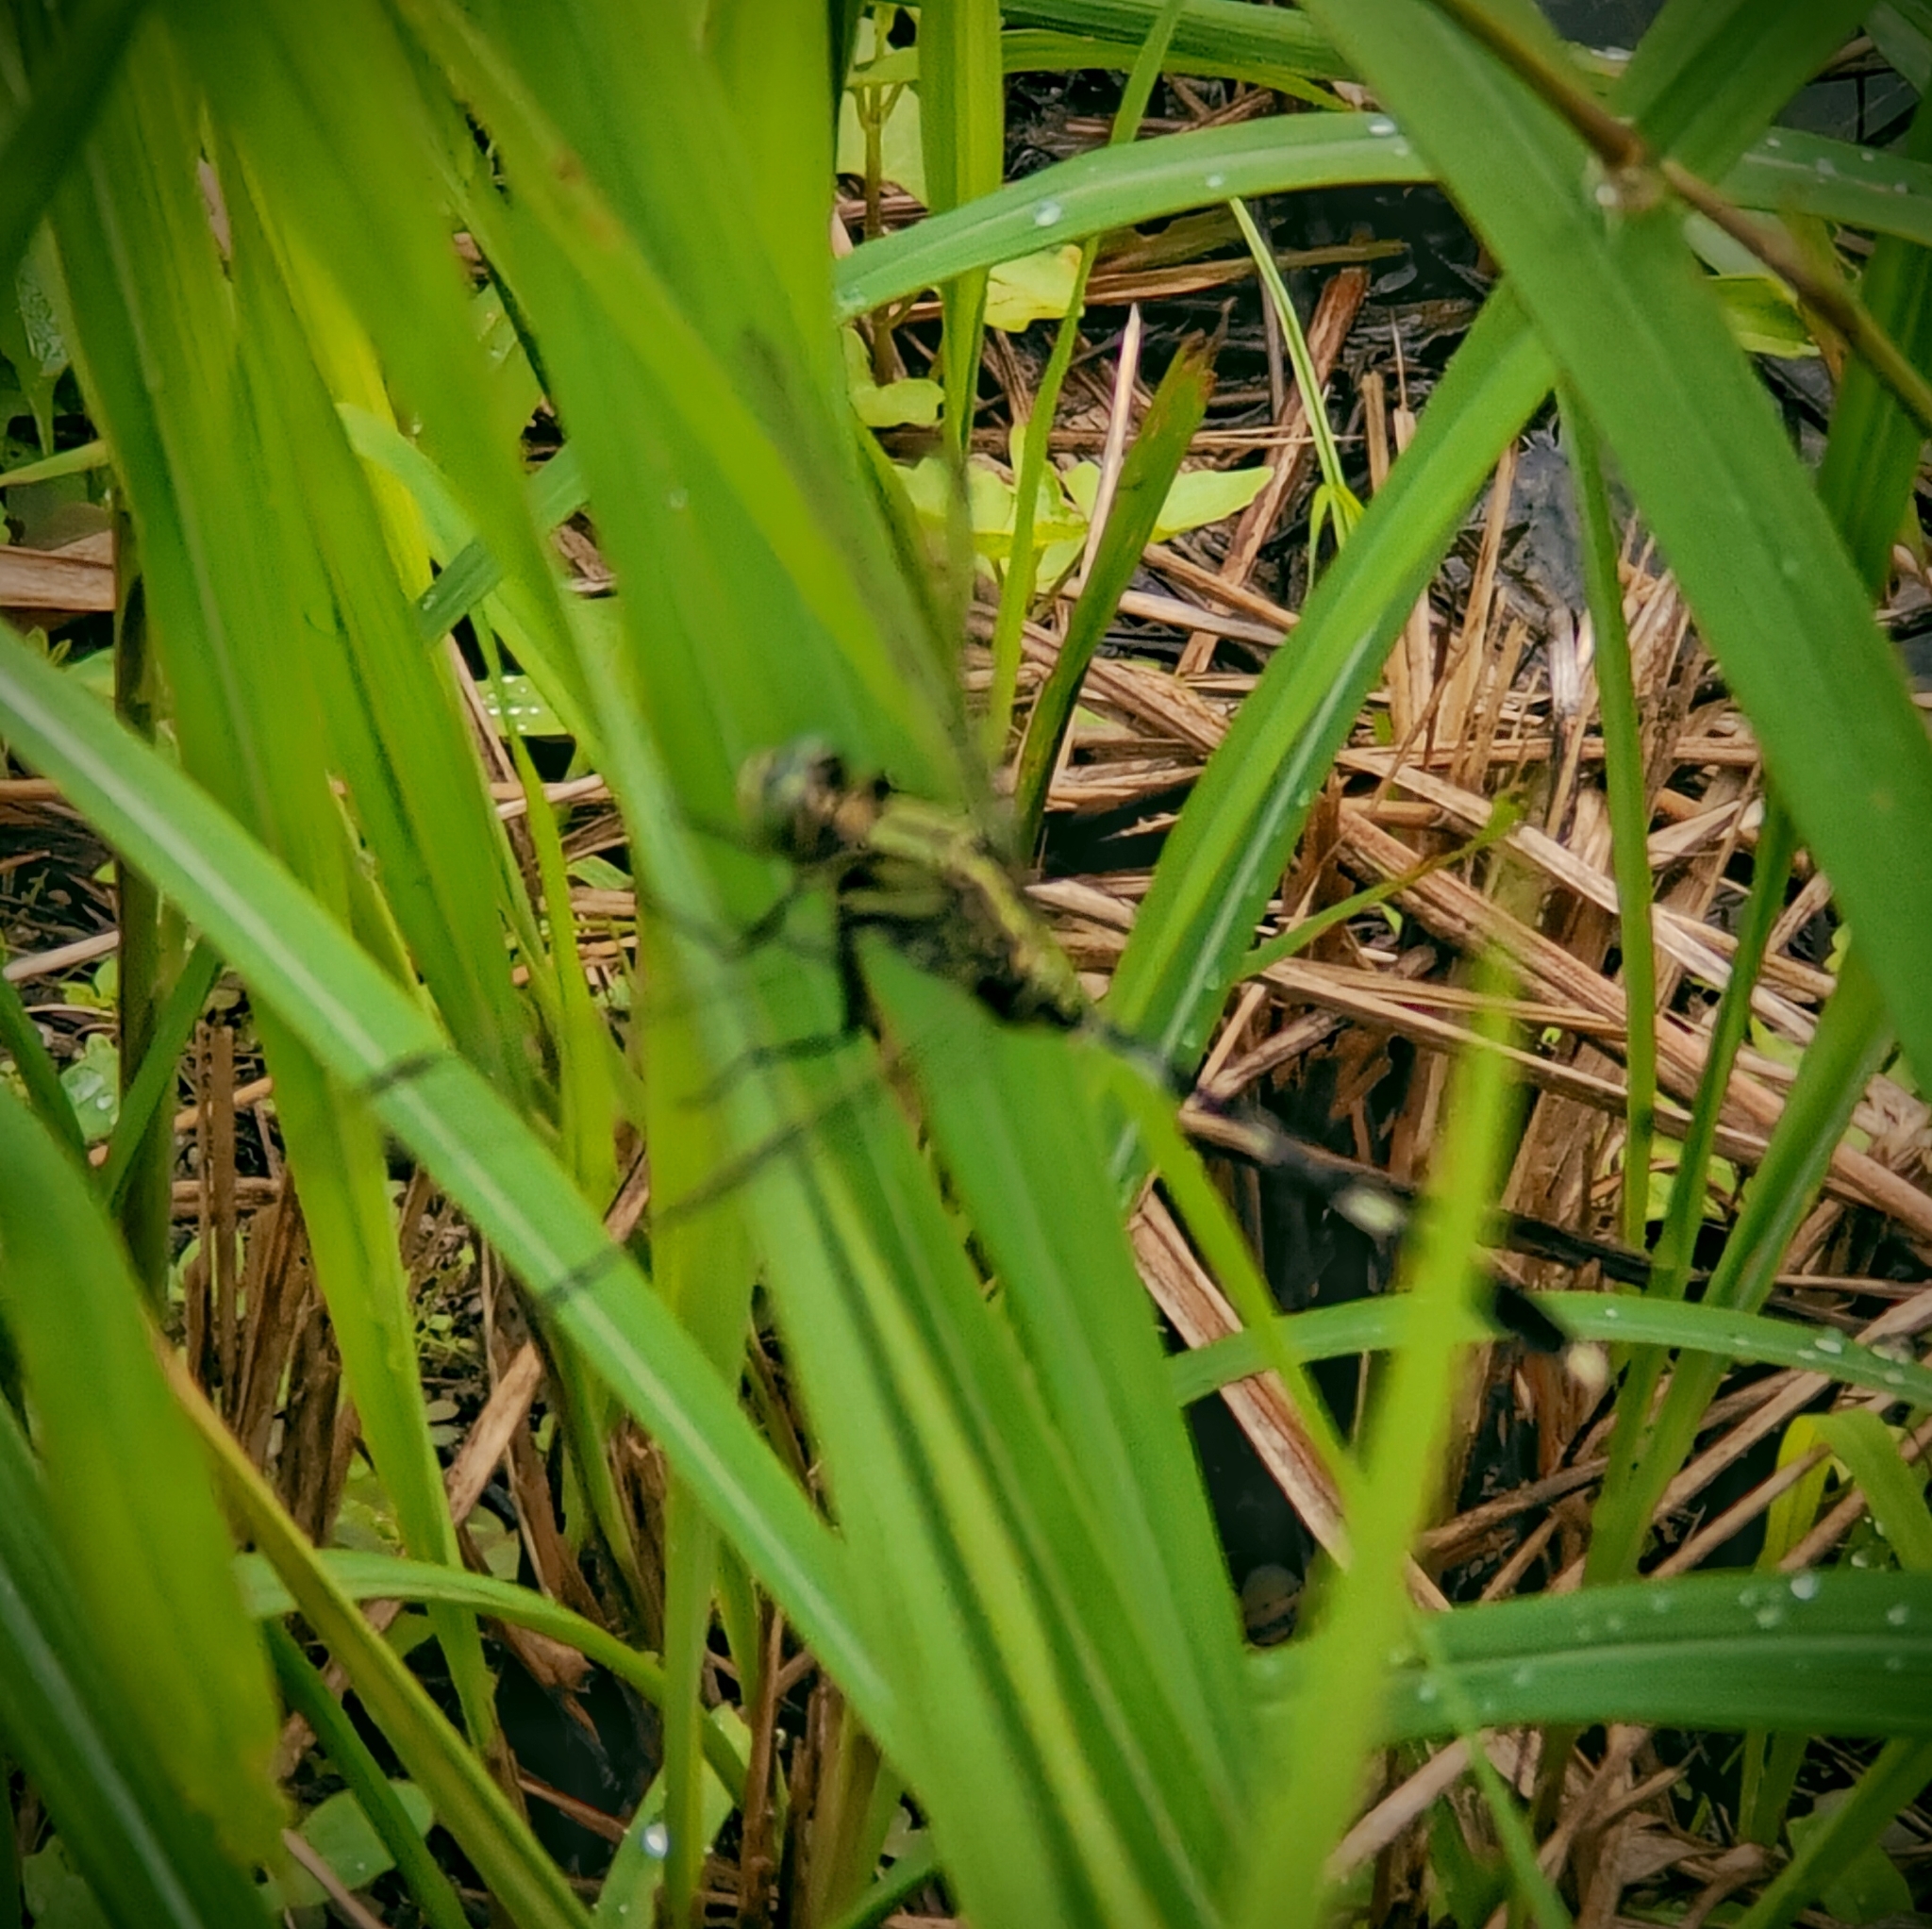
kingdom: Animalia
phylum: Arthropoda
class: Insecta
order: Odonata
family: Libellulidae
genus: Orthetrum
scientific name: Orthetrum sabina
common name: Slender skimmer
